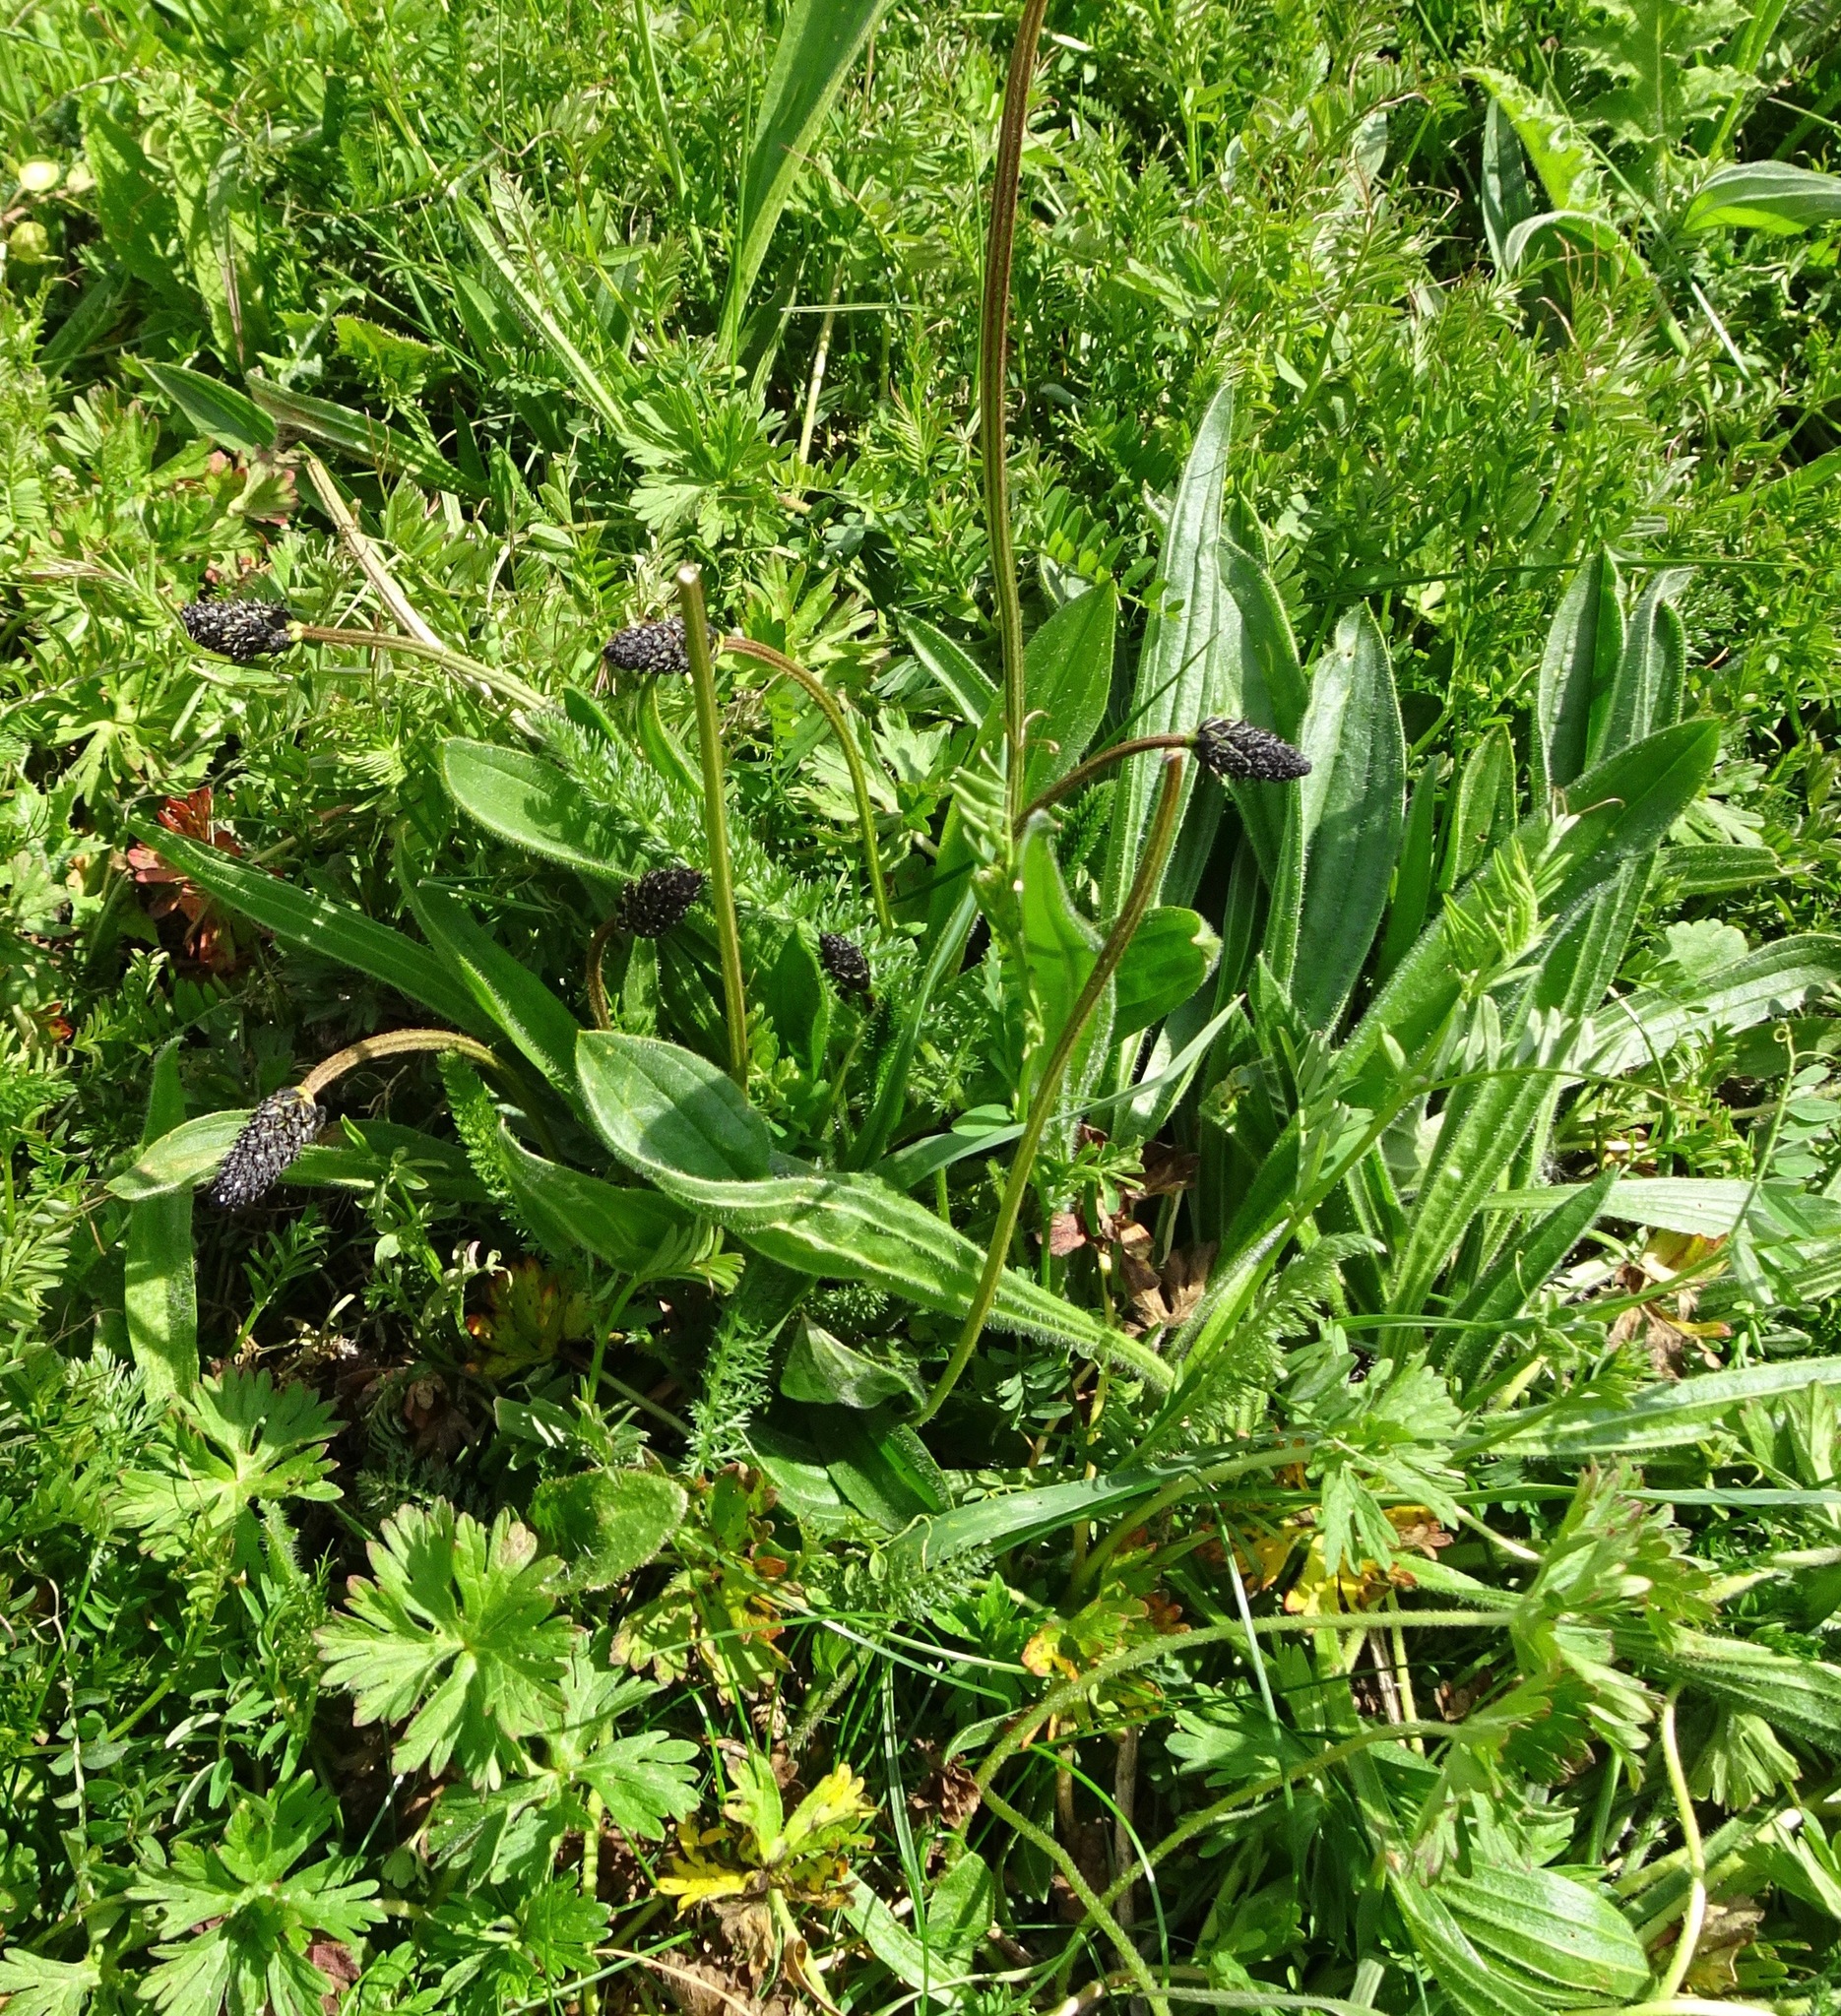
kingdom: Plantae
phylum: Tracheophyta
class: Magnoliopsida
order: Lamiales
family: Plantaginaceae
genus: Plantago
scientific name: Plantago lanceolata
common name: Ribwort plantain
